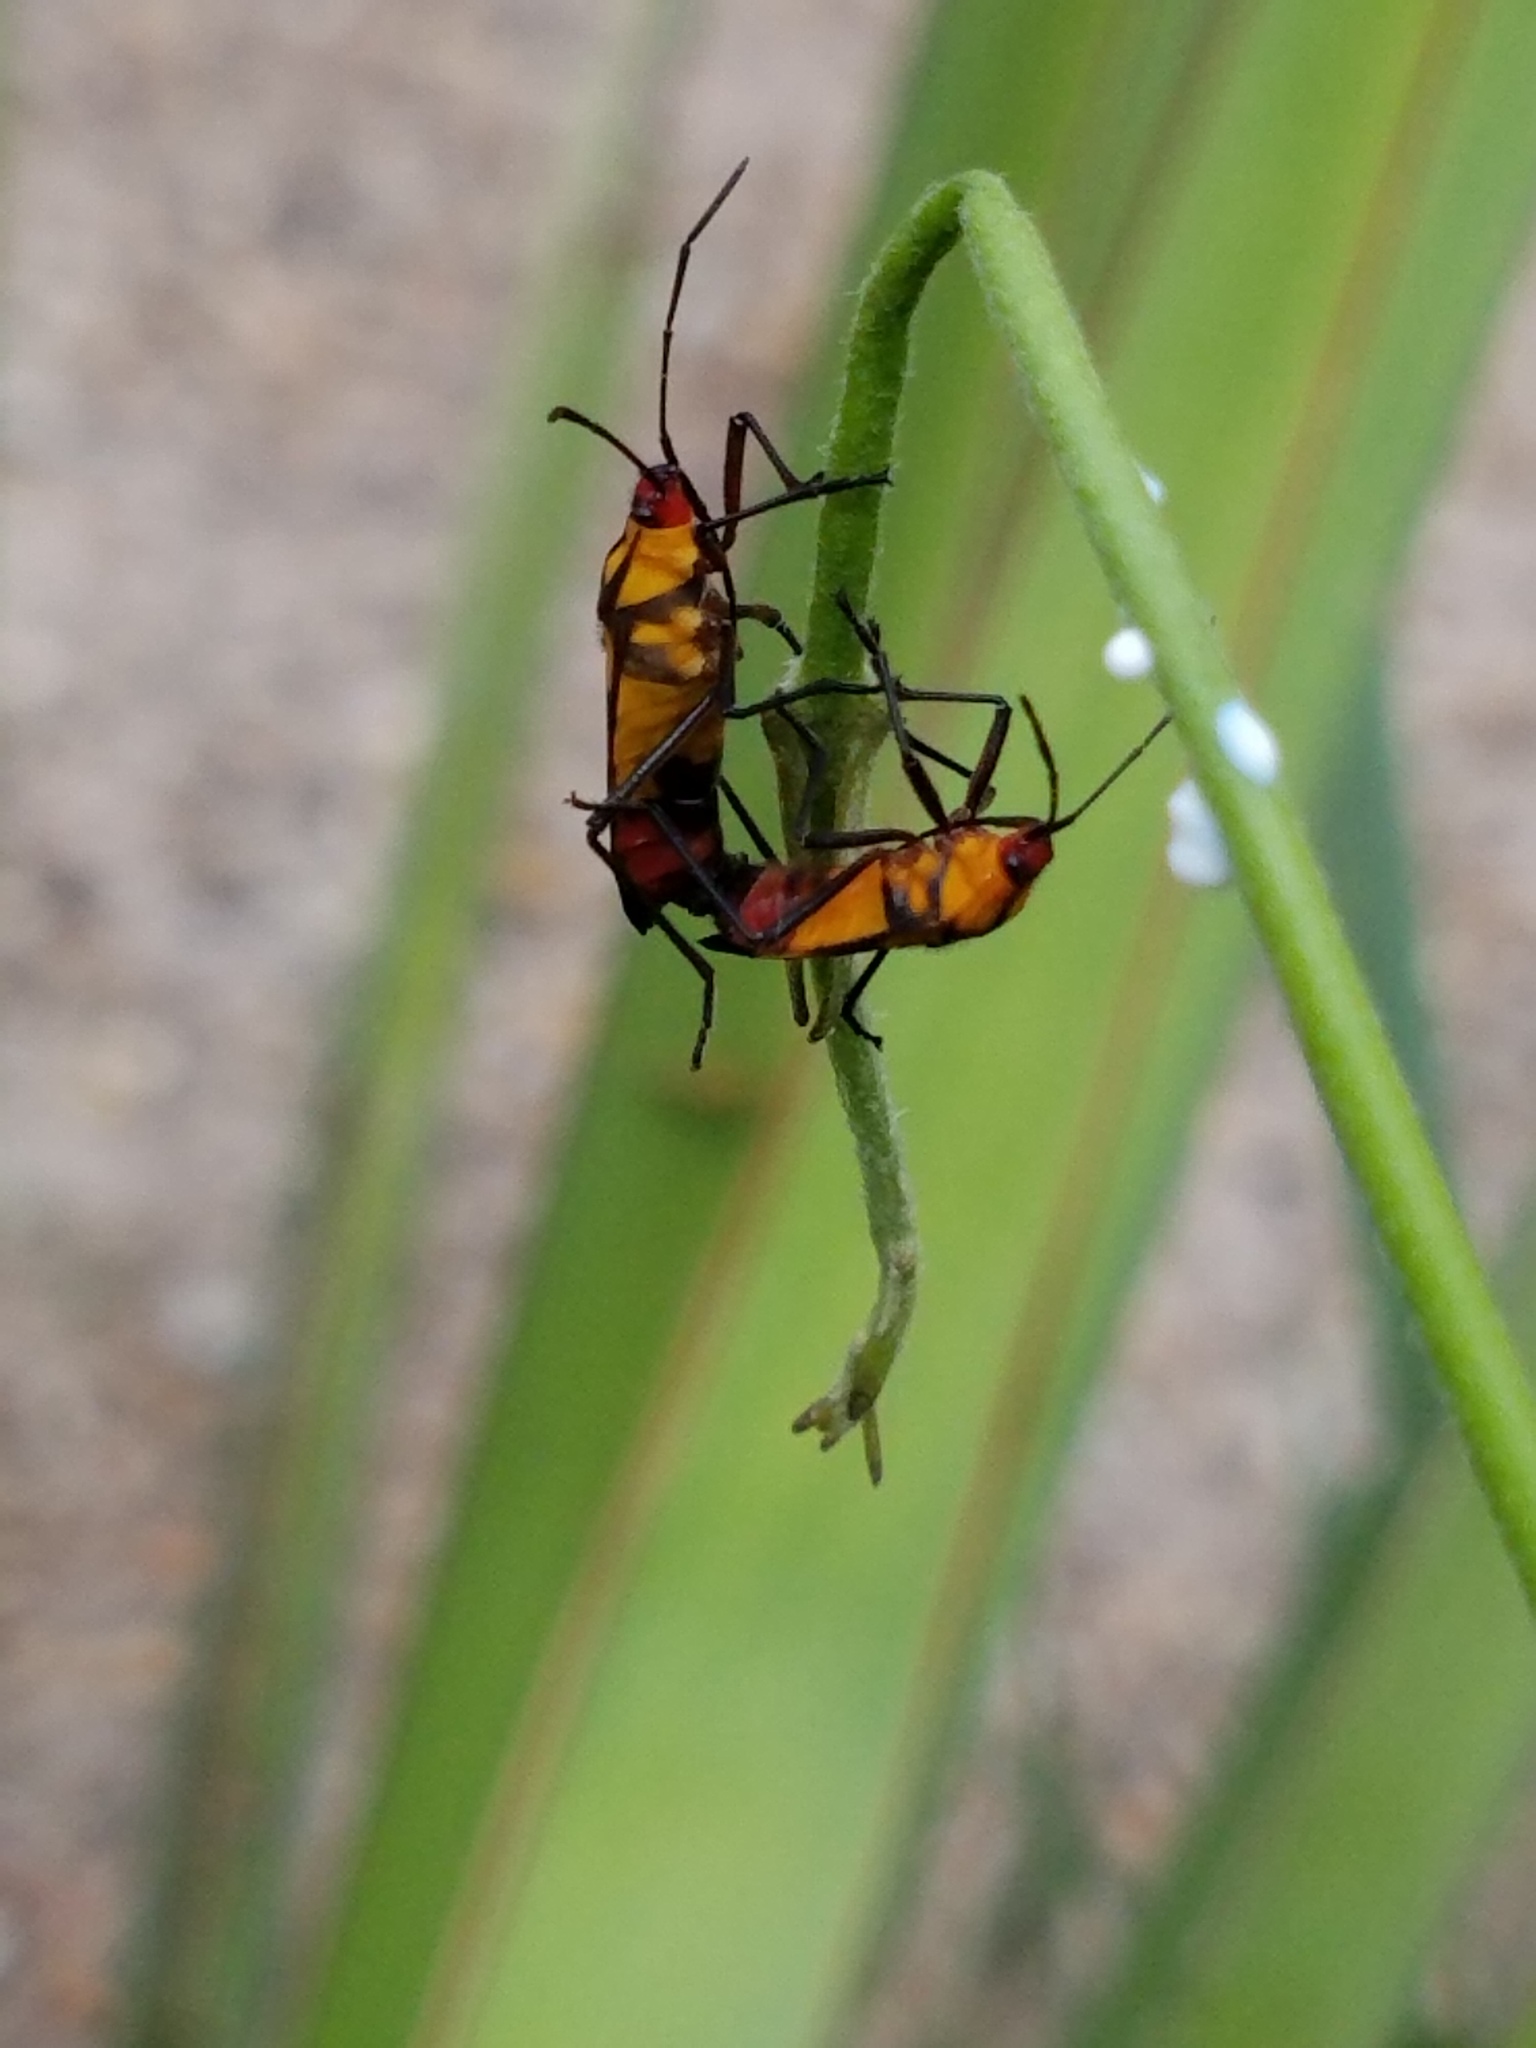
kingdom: Animalia
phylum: Arthropoda
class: Insecta
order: Hemiptera
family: Lygaeidae
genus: Oncopeltus
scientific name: Oncopeltus sexmaculatus
